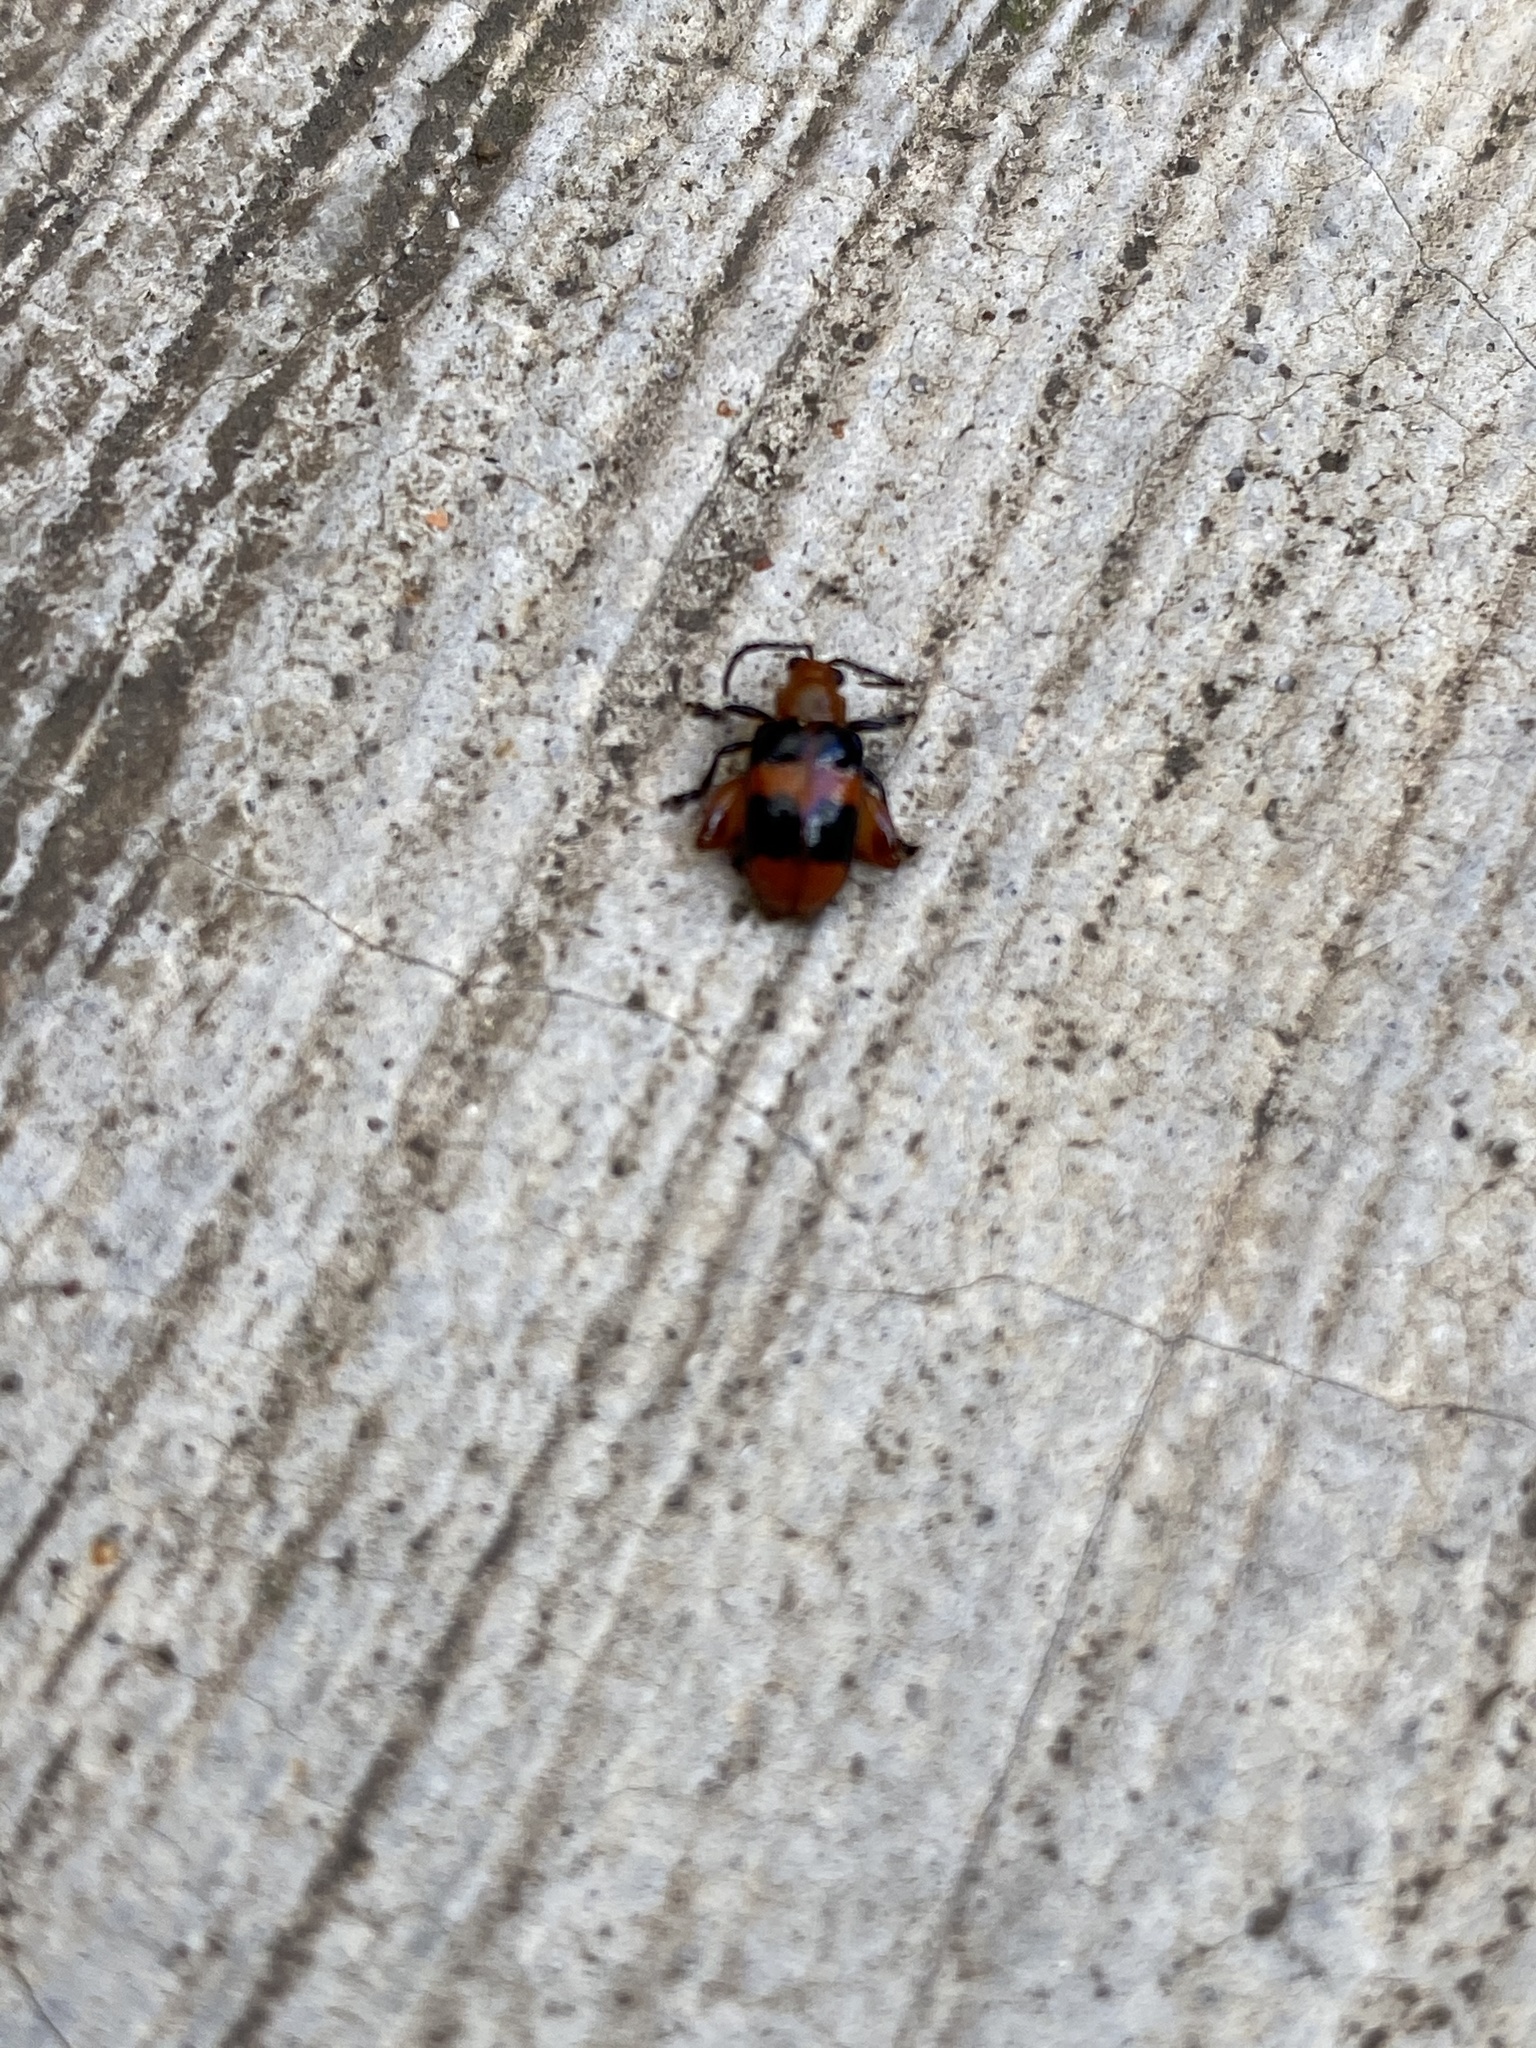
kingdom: Animalia
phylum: Arthropoda
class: Insecta
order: Coleoptera
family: Chrysomelidae
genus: Allochroma
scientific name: Allochroma
